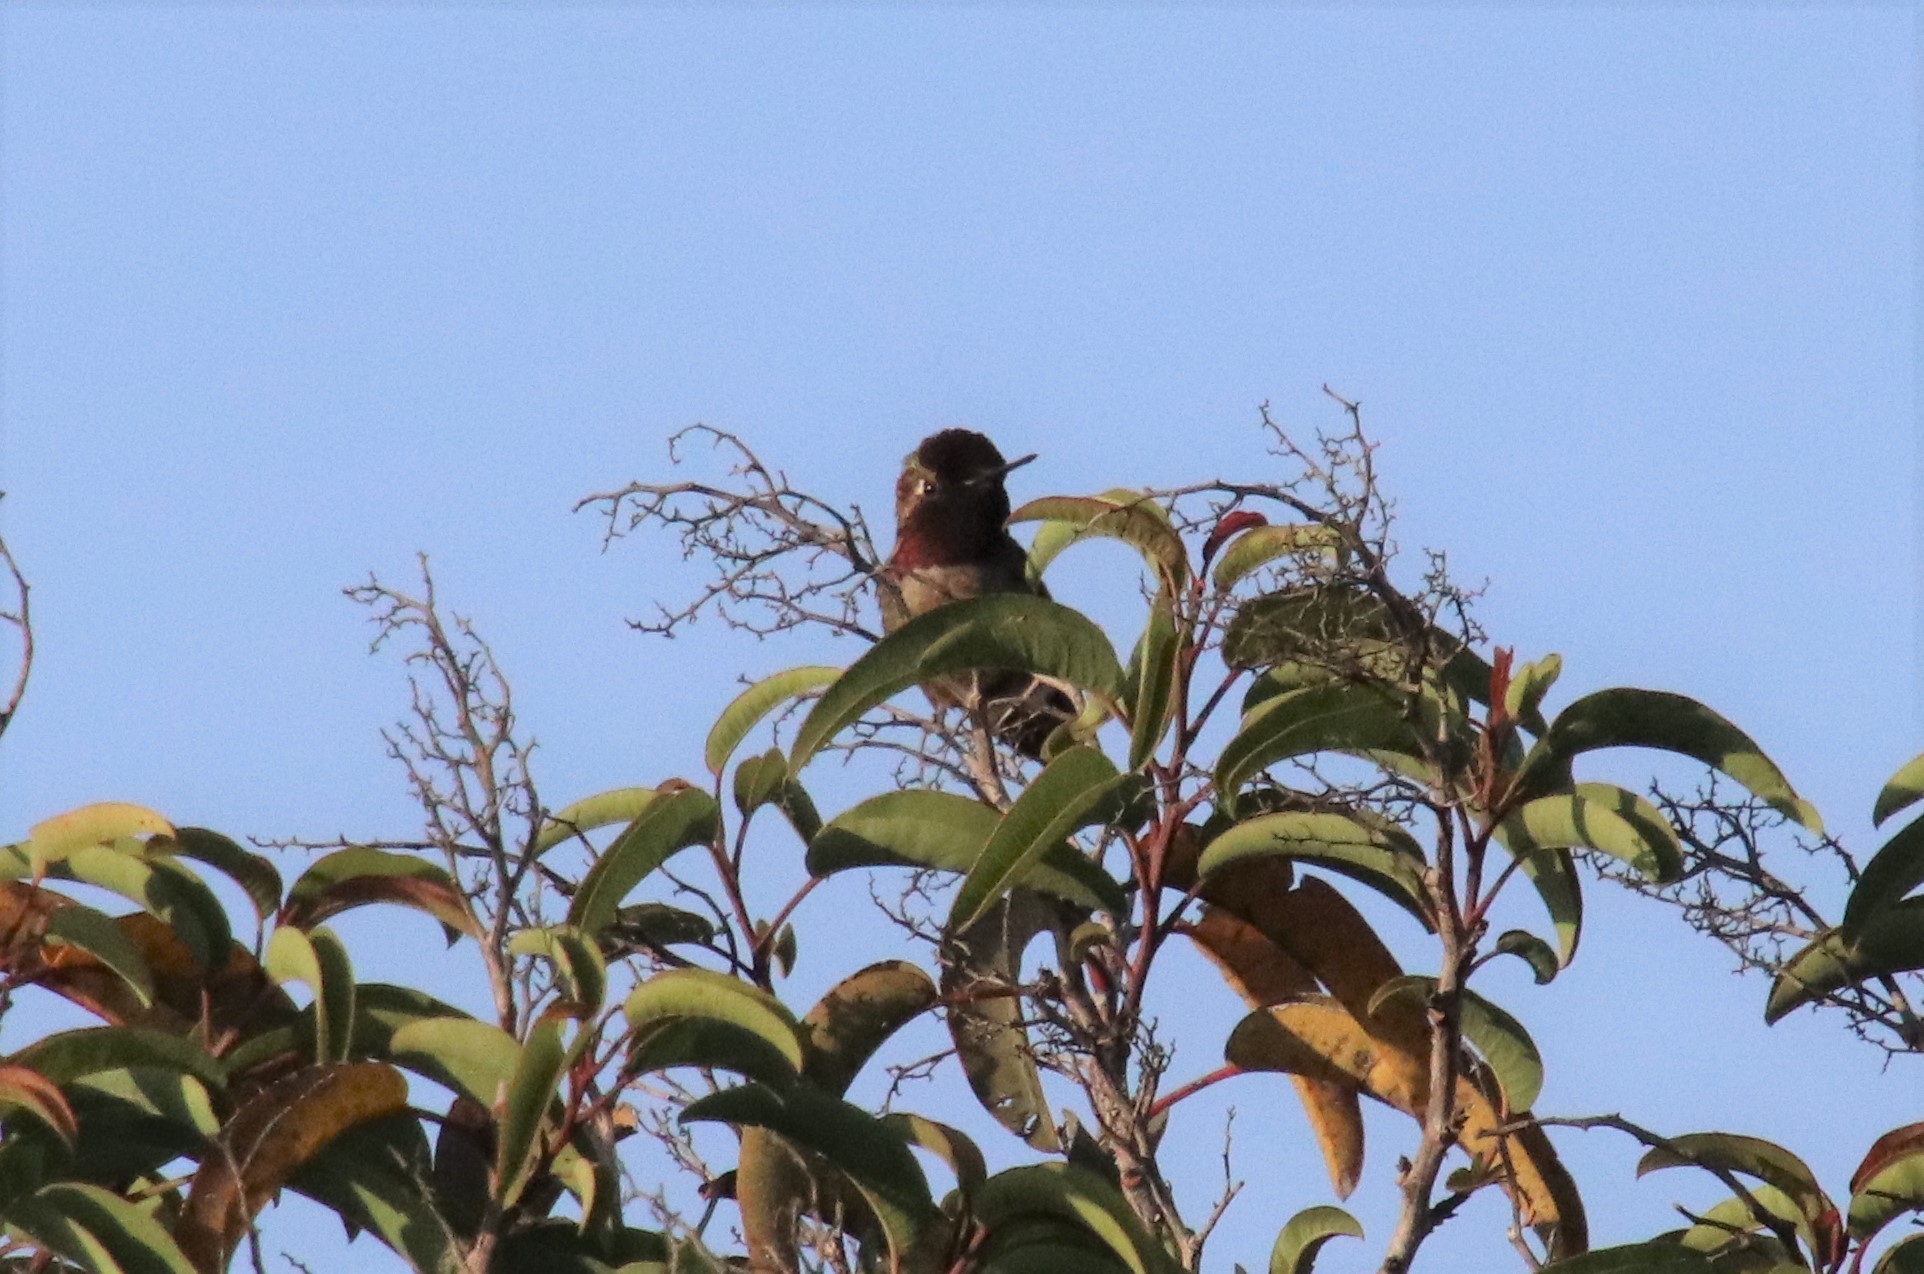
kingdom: Animalia
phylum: Chordata
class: Aves
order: Apodiformes
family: Trochilidae
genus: Calypte
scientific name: Calypte anna
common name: Anna's hummingbird
